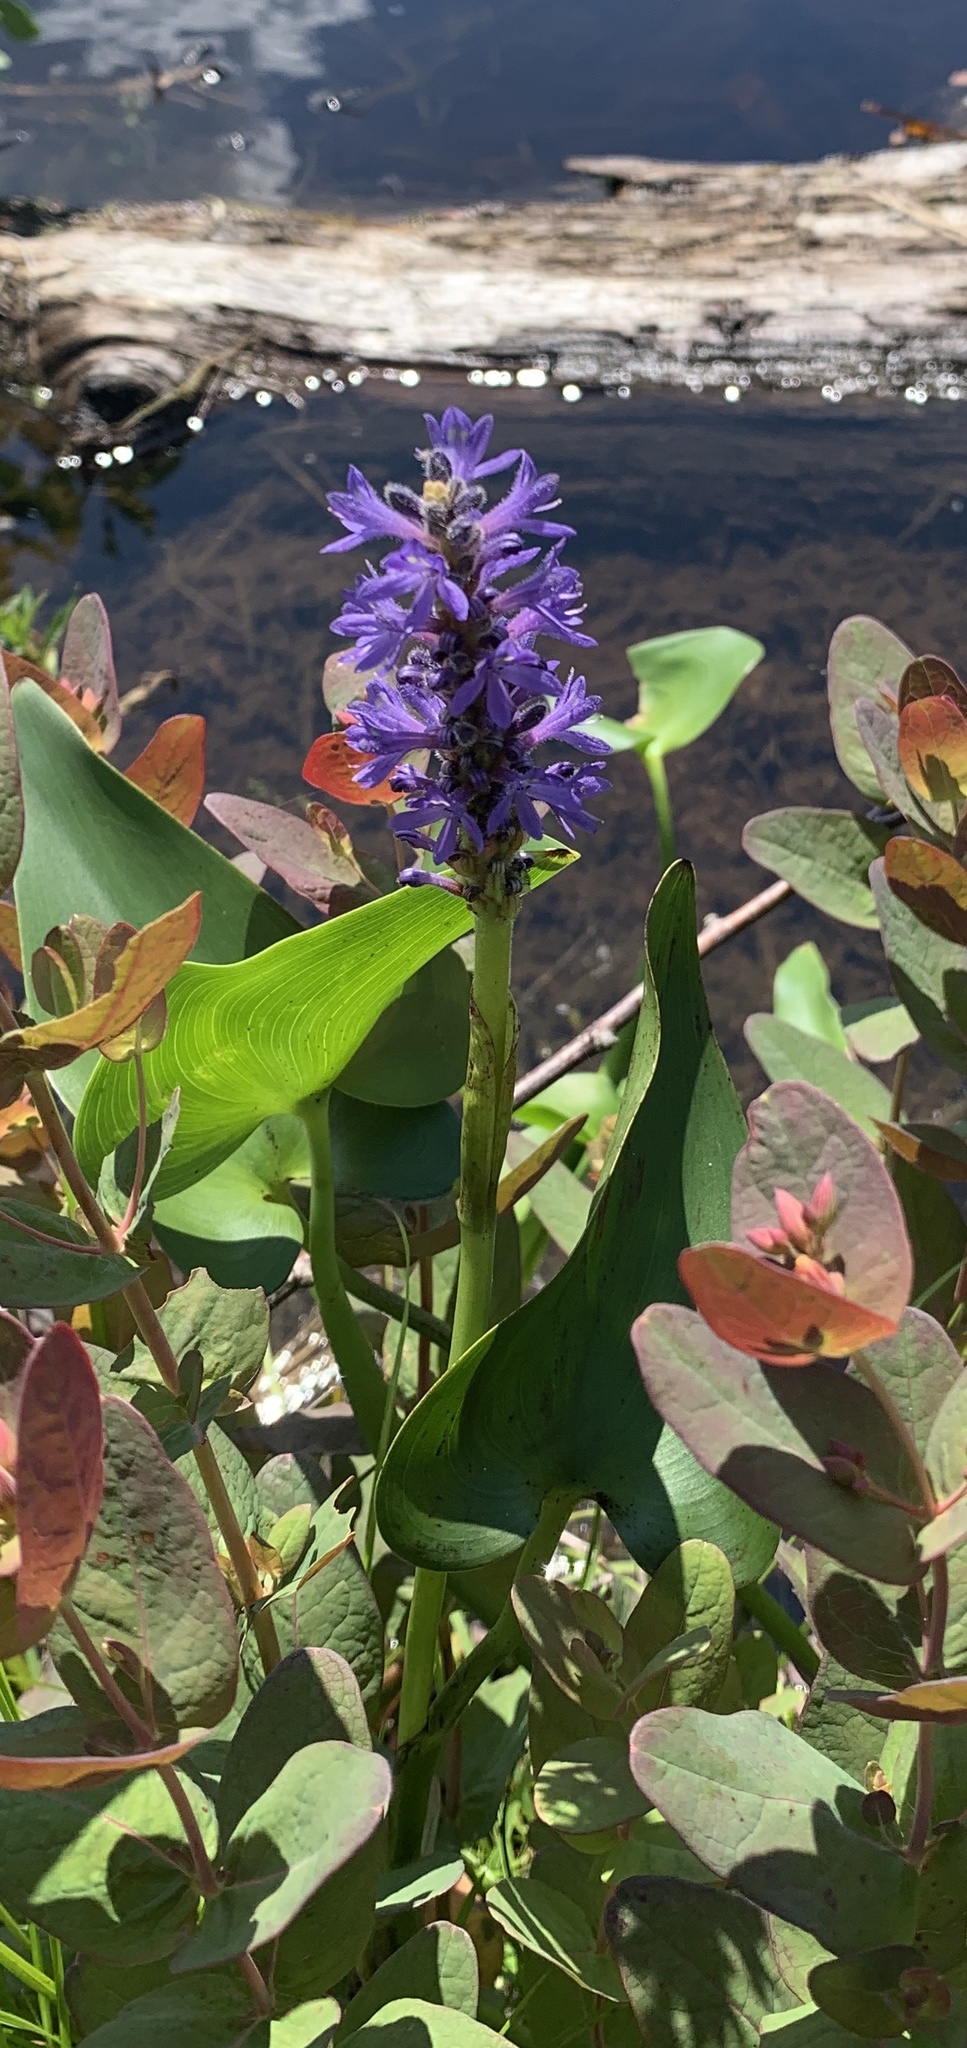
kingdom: Plantae
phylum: Tracheophyta
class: Liliopsida
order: Commelinales
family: Pontederiaceae
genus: Pontederia
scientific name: Pontederia cordata
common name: Pickerelweed
